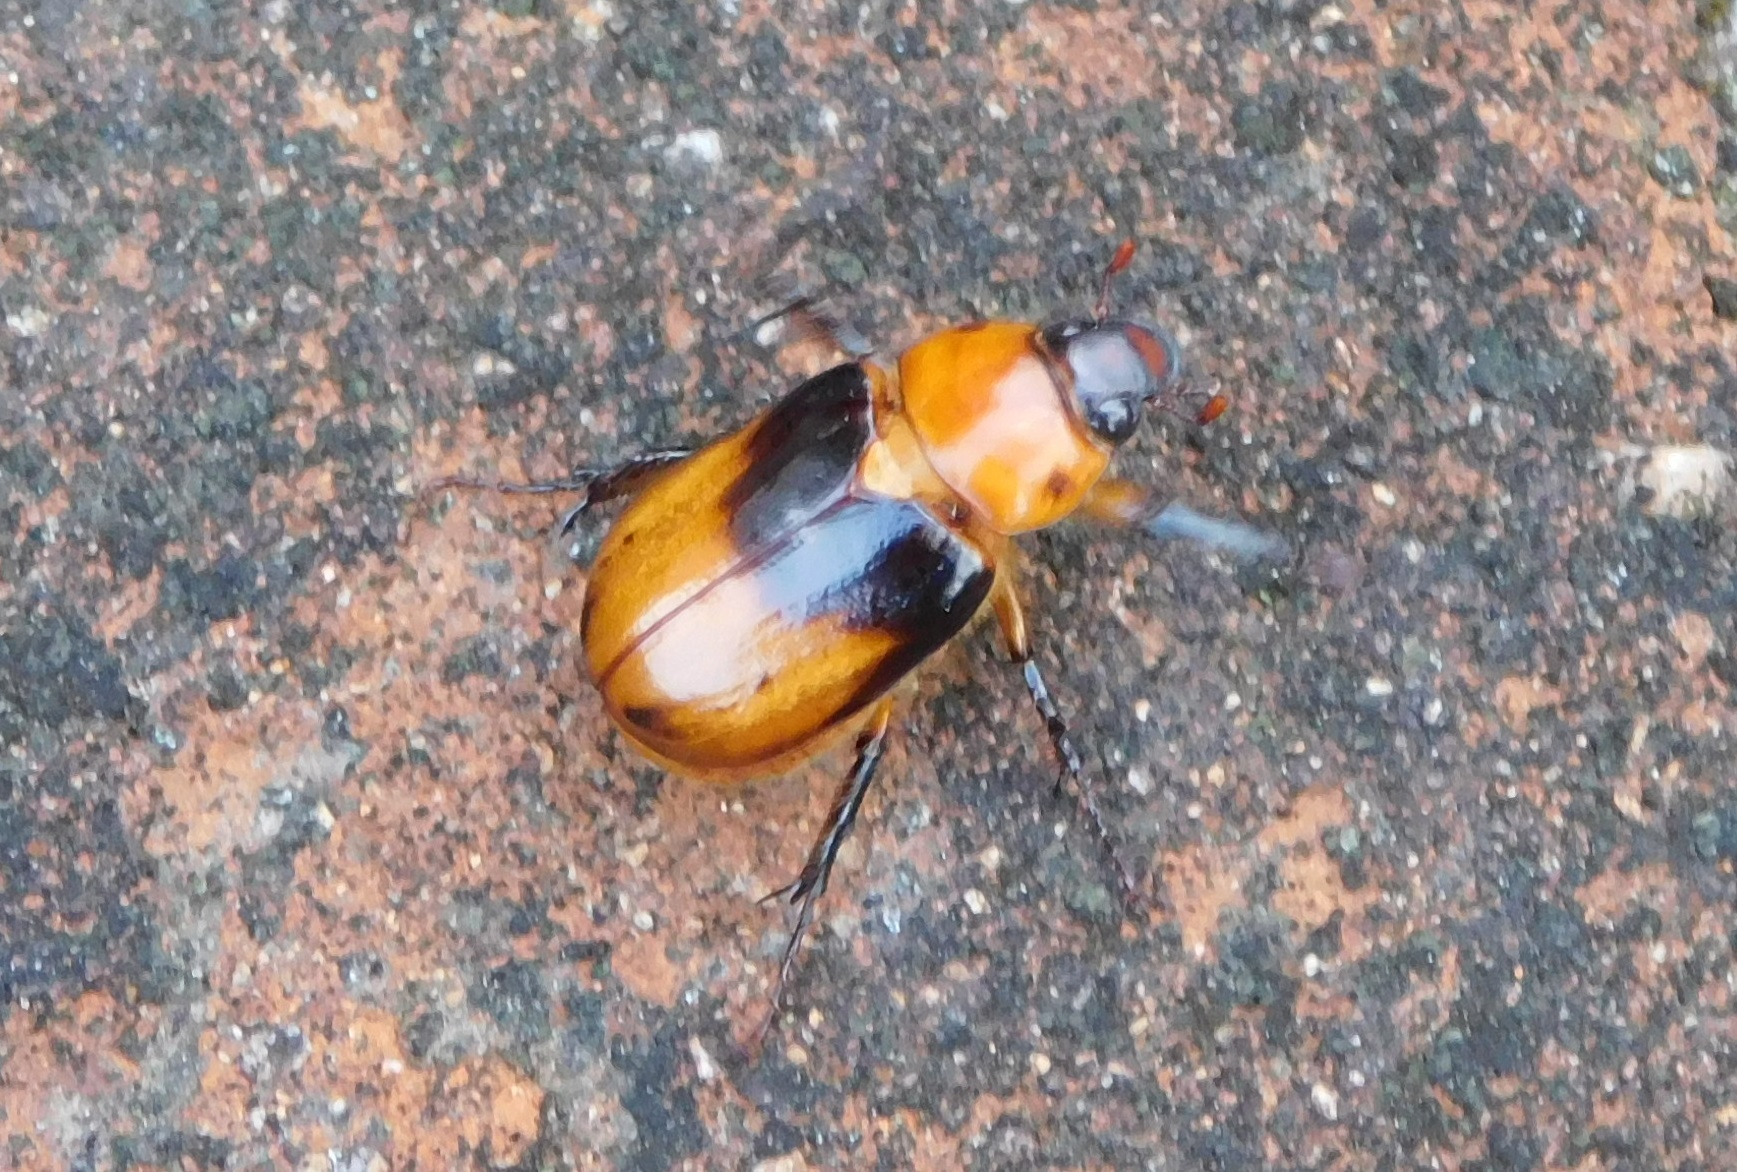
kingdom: Animalia
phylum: Arthropoda
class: Insecta
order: Coleoptera
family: Scarabaeidae
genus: Ancognatha
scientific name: Ancognatha sellata
